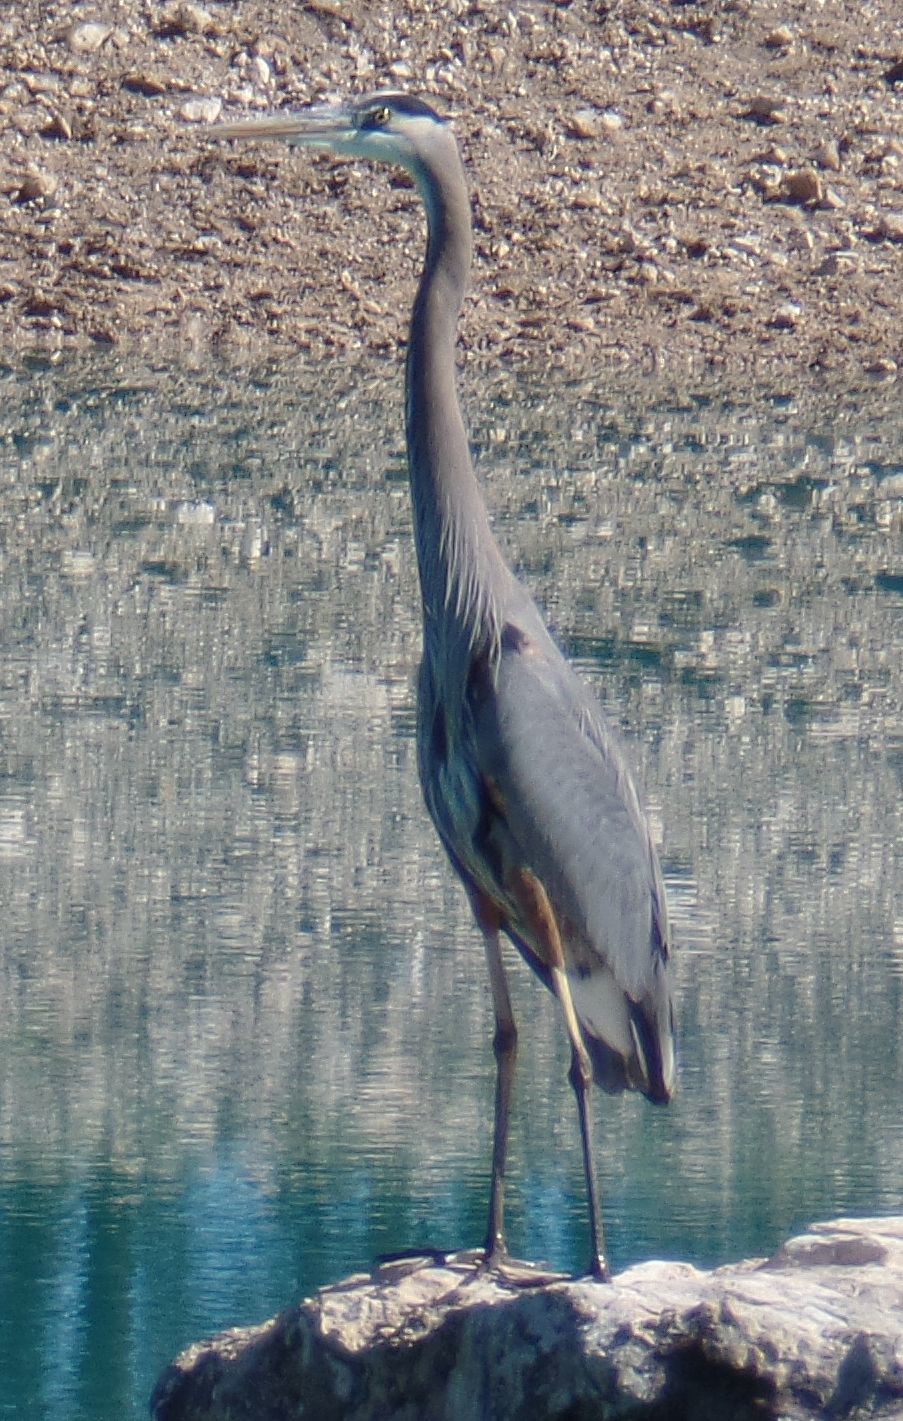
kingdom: Animalia
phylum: Chordata
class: Aves
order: Pelecaniformes
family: Ardeidae
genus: Ardea
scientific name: Ardea herodias
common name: Great blue heron
